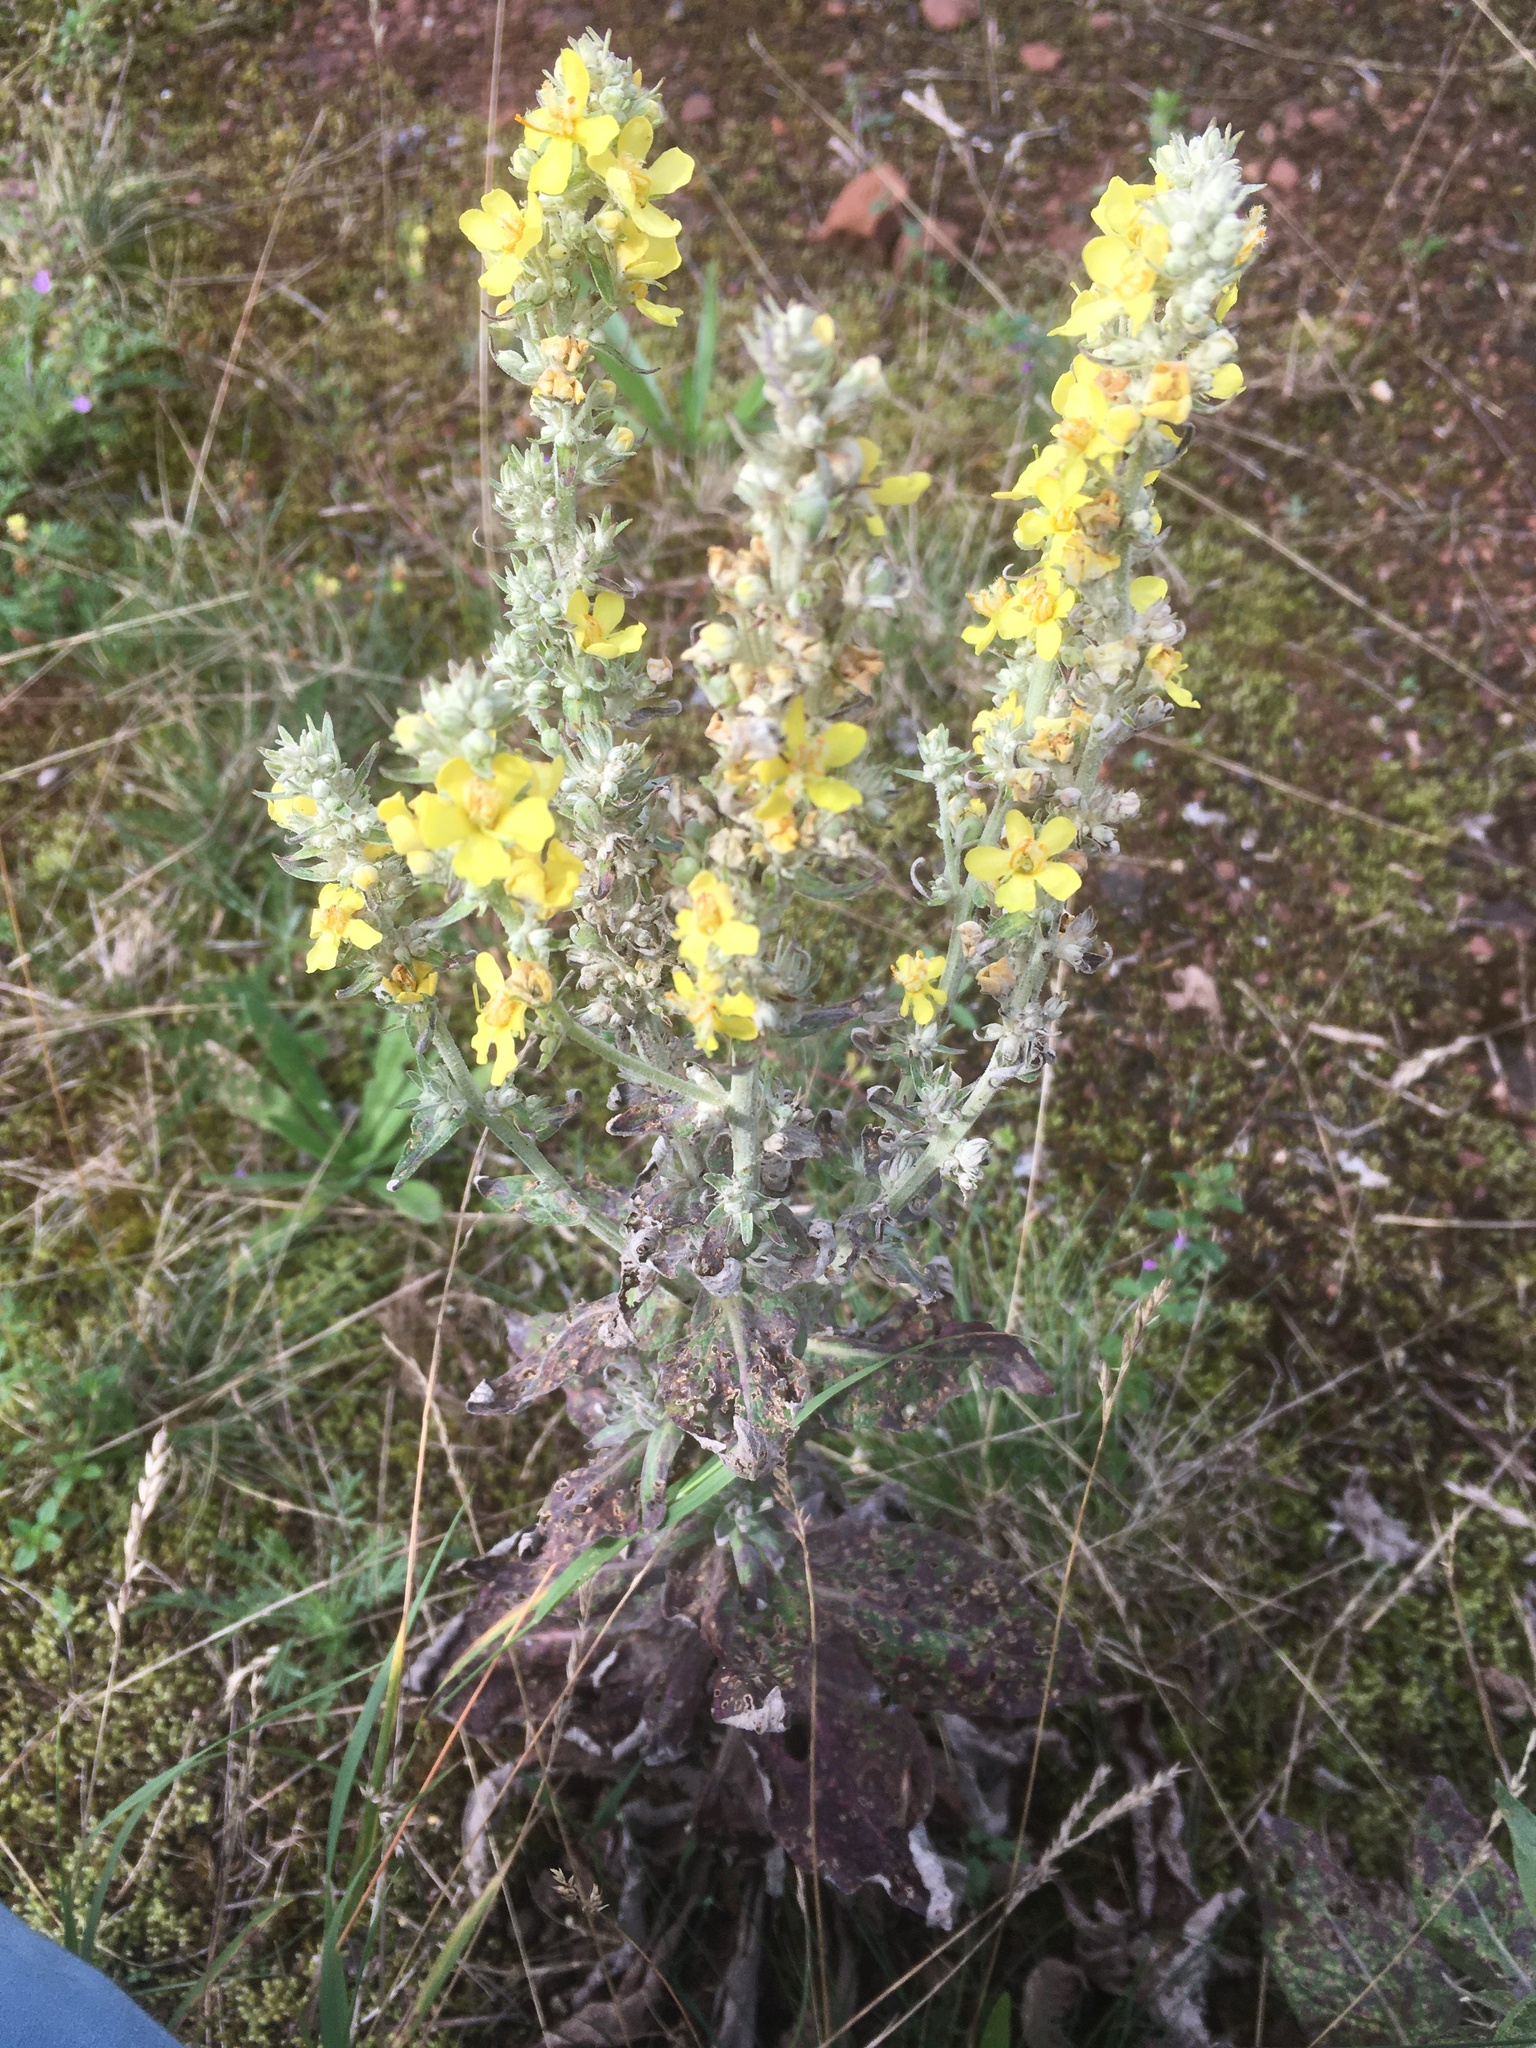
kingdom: Plantae
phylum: Tracheophyta
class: Magnoliopsida
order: Lamiales
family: Scrophulariaceae
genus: Verbascum
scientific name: Verbascum lychnitis
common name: White mullein
